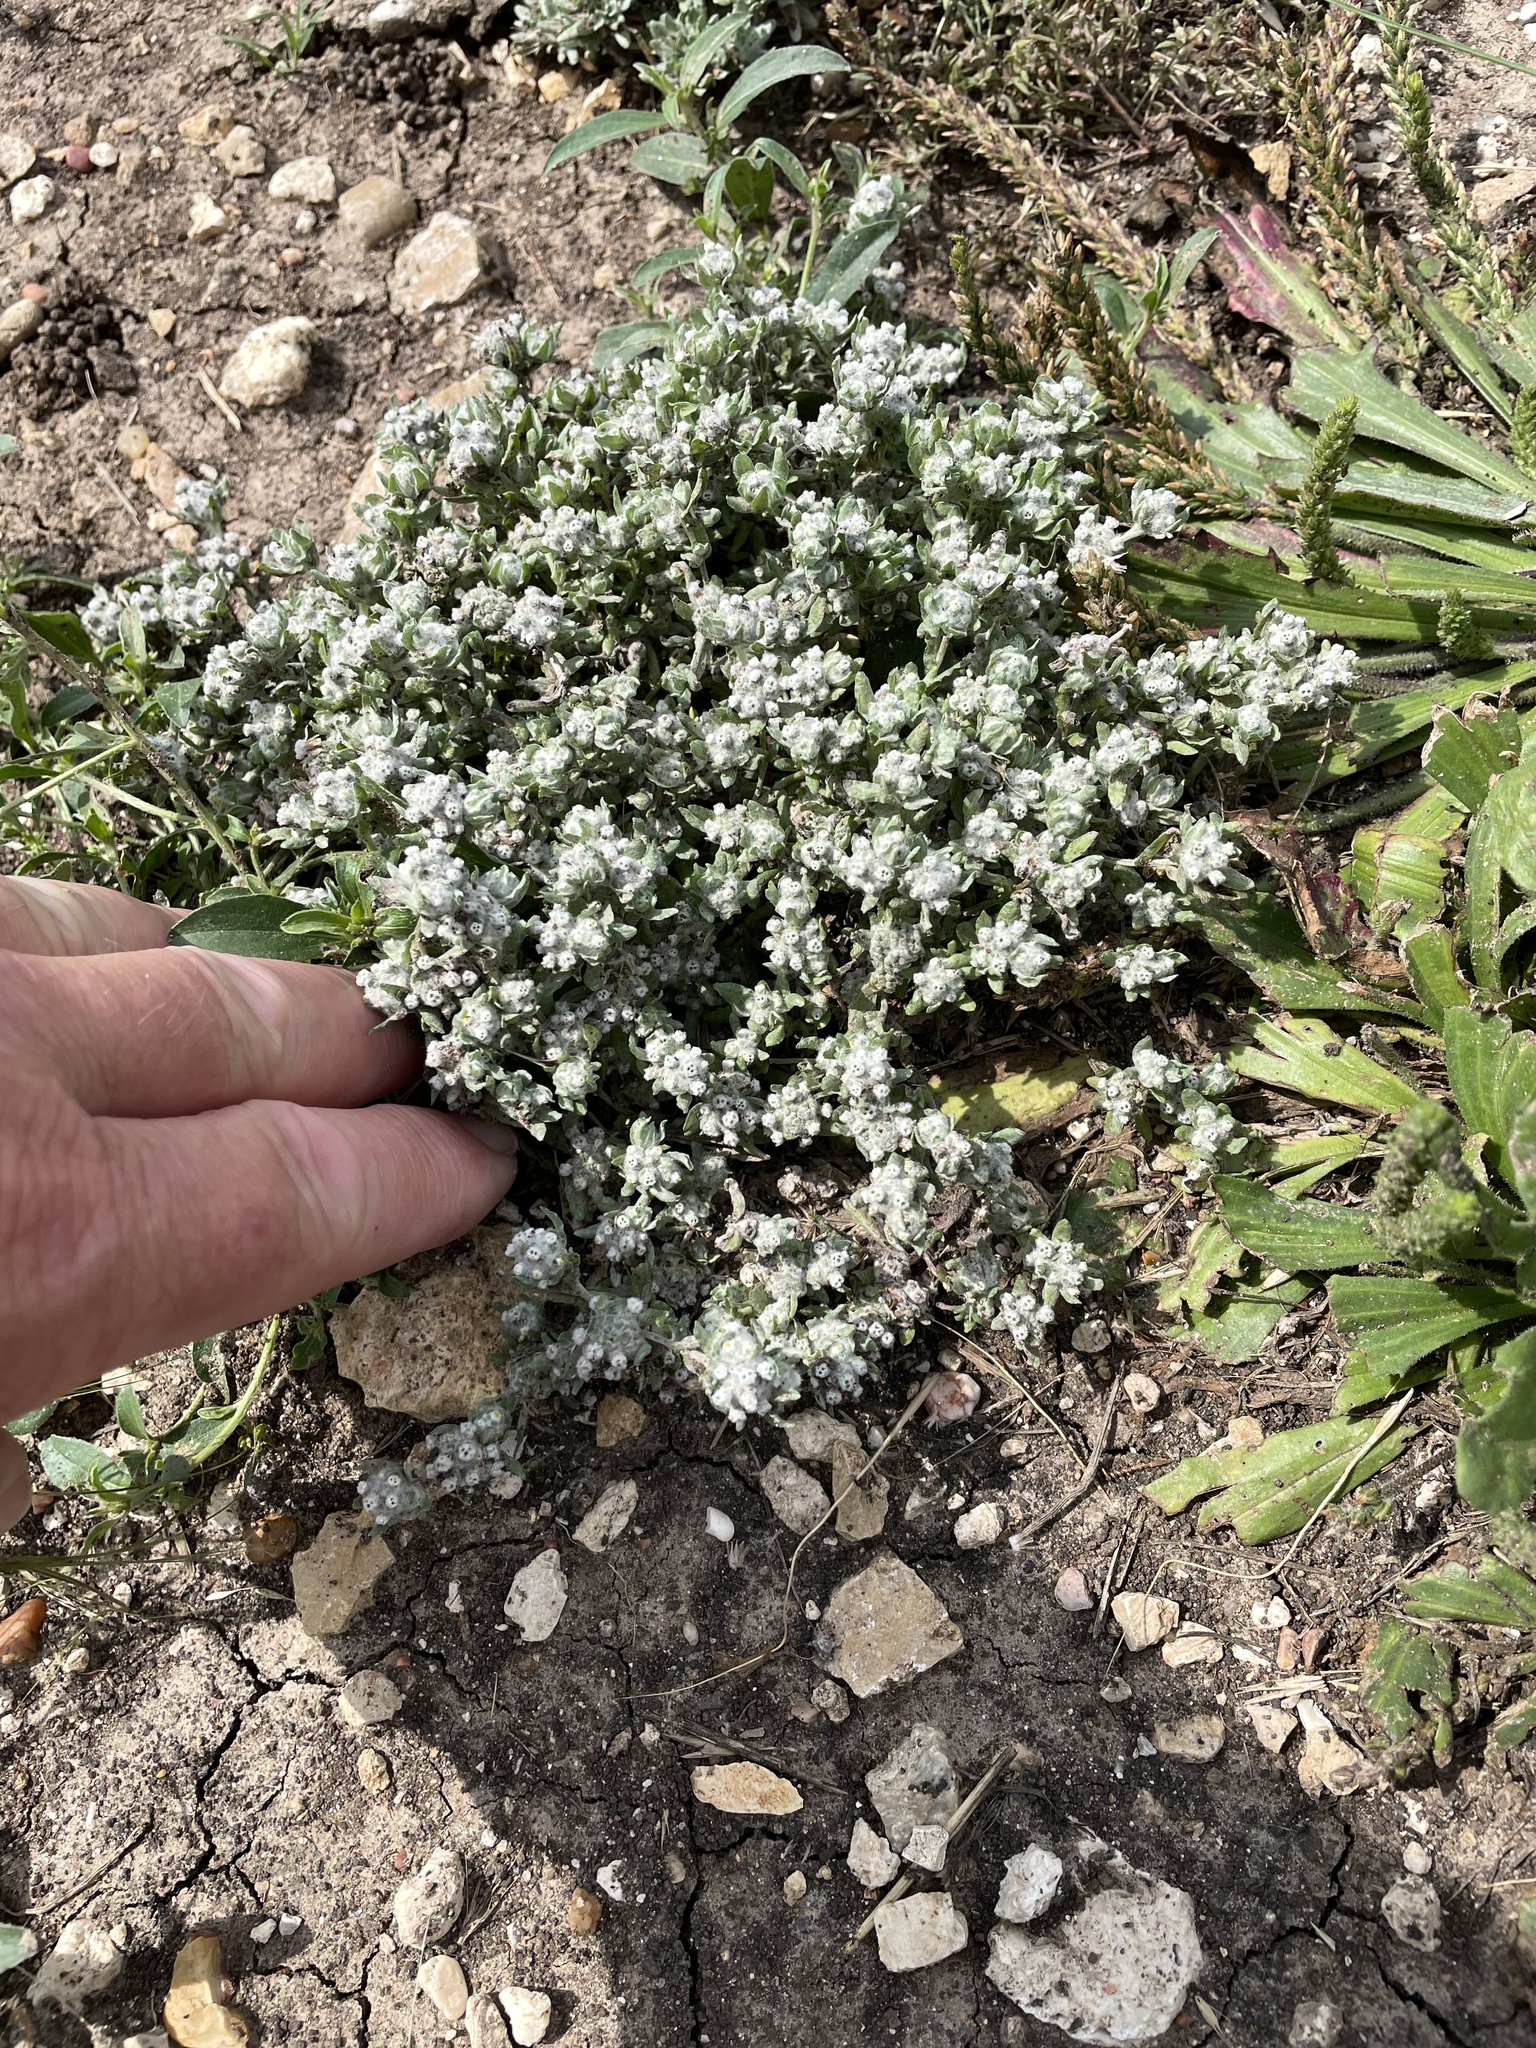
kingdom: Plantae
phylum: Tracheophyta
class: Magnoliopsida
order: Asterales
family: Asteraceae
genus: Diaperia
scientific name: Diaperia verna
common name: Many-stem rabbit-tobacco
